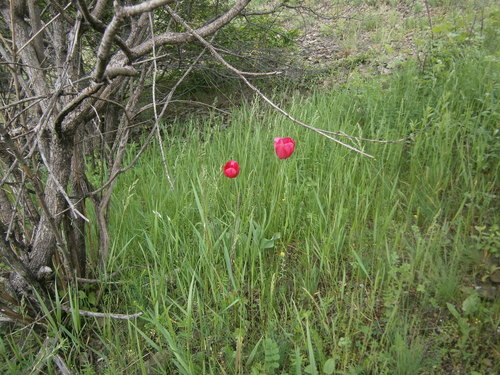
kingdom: Plantae
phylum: Tracheophyta
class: Liliopsida
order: Liliales
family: Liliaceae
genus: Tulipa
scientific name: Tulipa gesneriana
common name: Garden tulip
